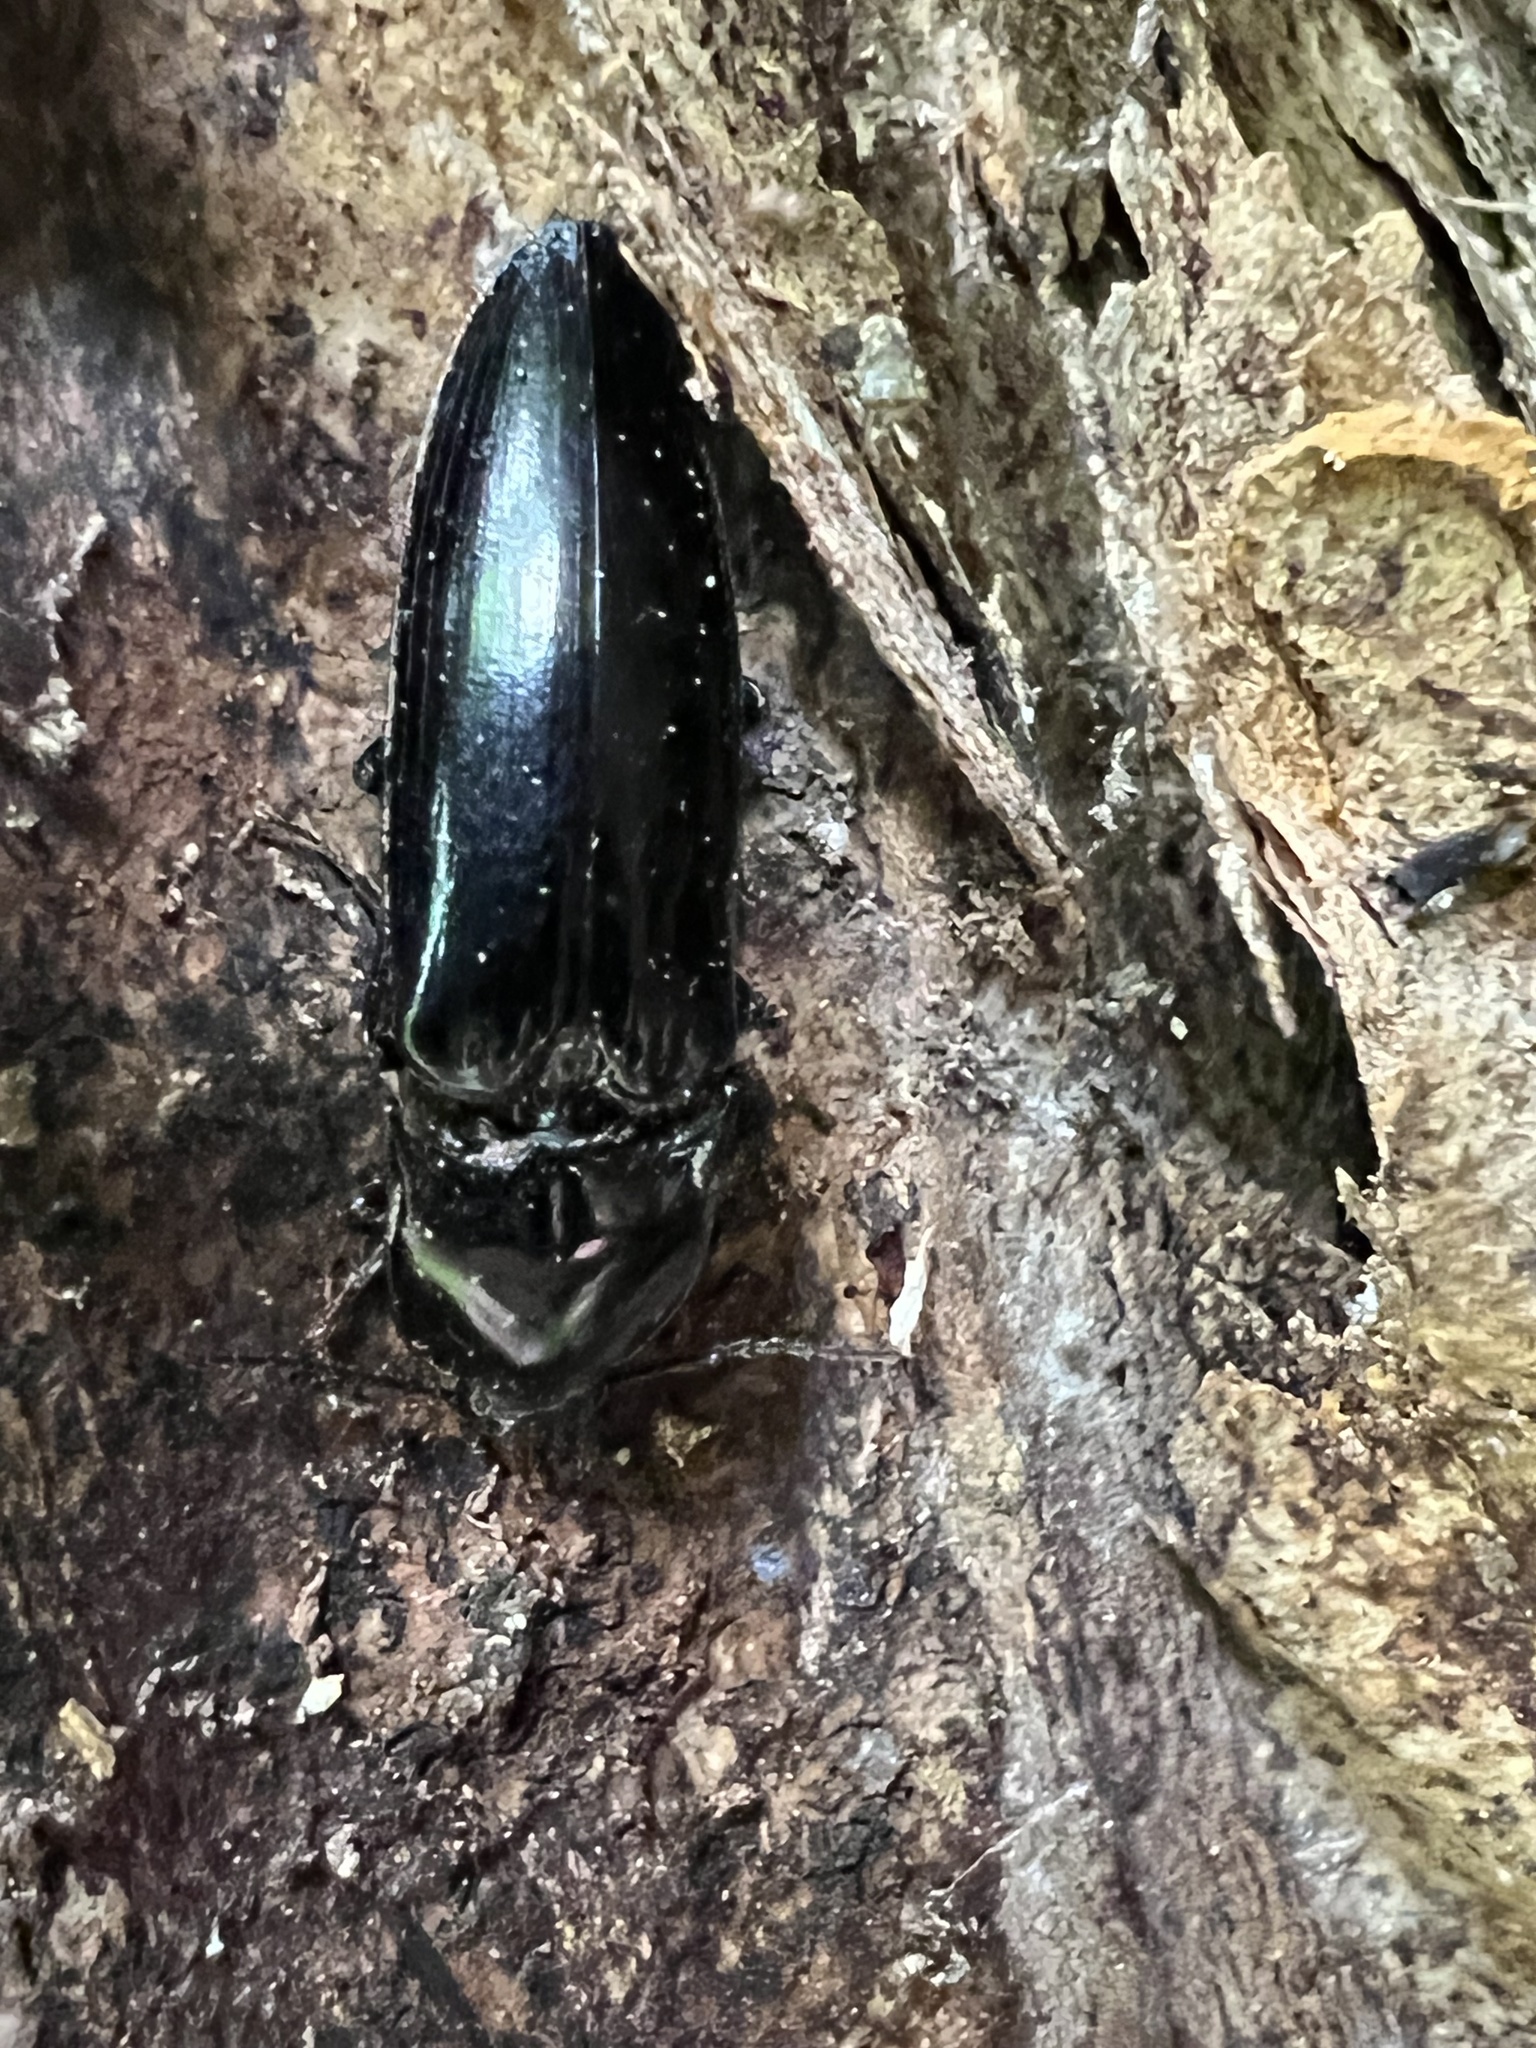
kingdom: Animalia
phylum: Arthropoda
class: Insecta
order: Coleoptera
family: Elateridae
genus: Melanactes
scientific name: Melanactes piceus
